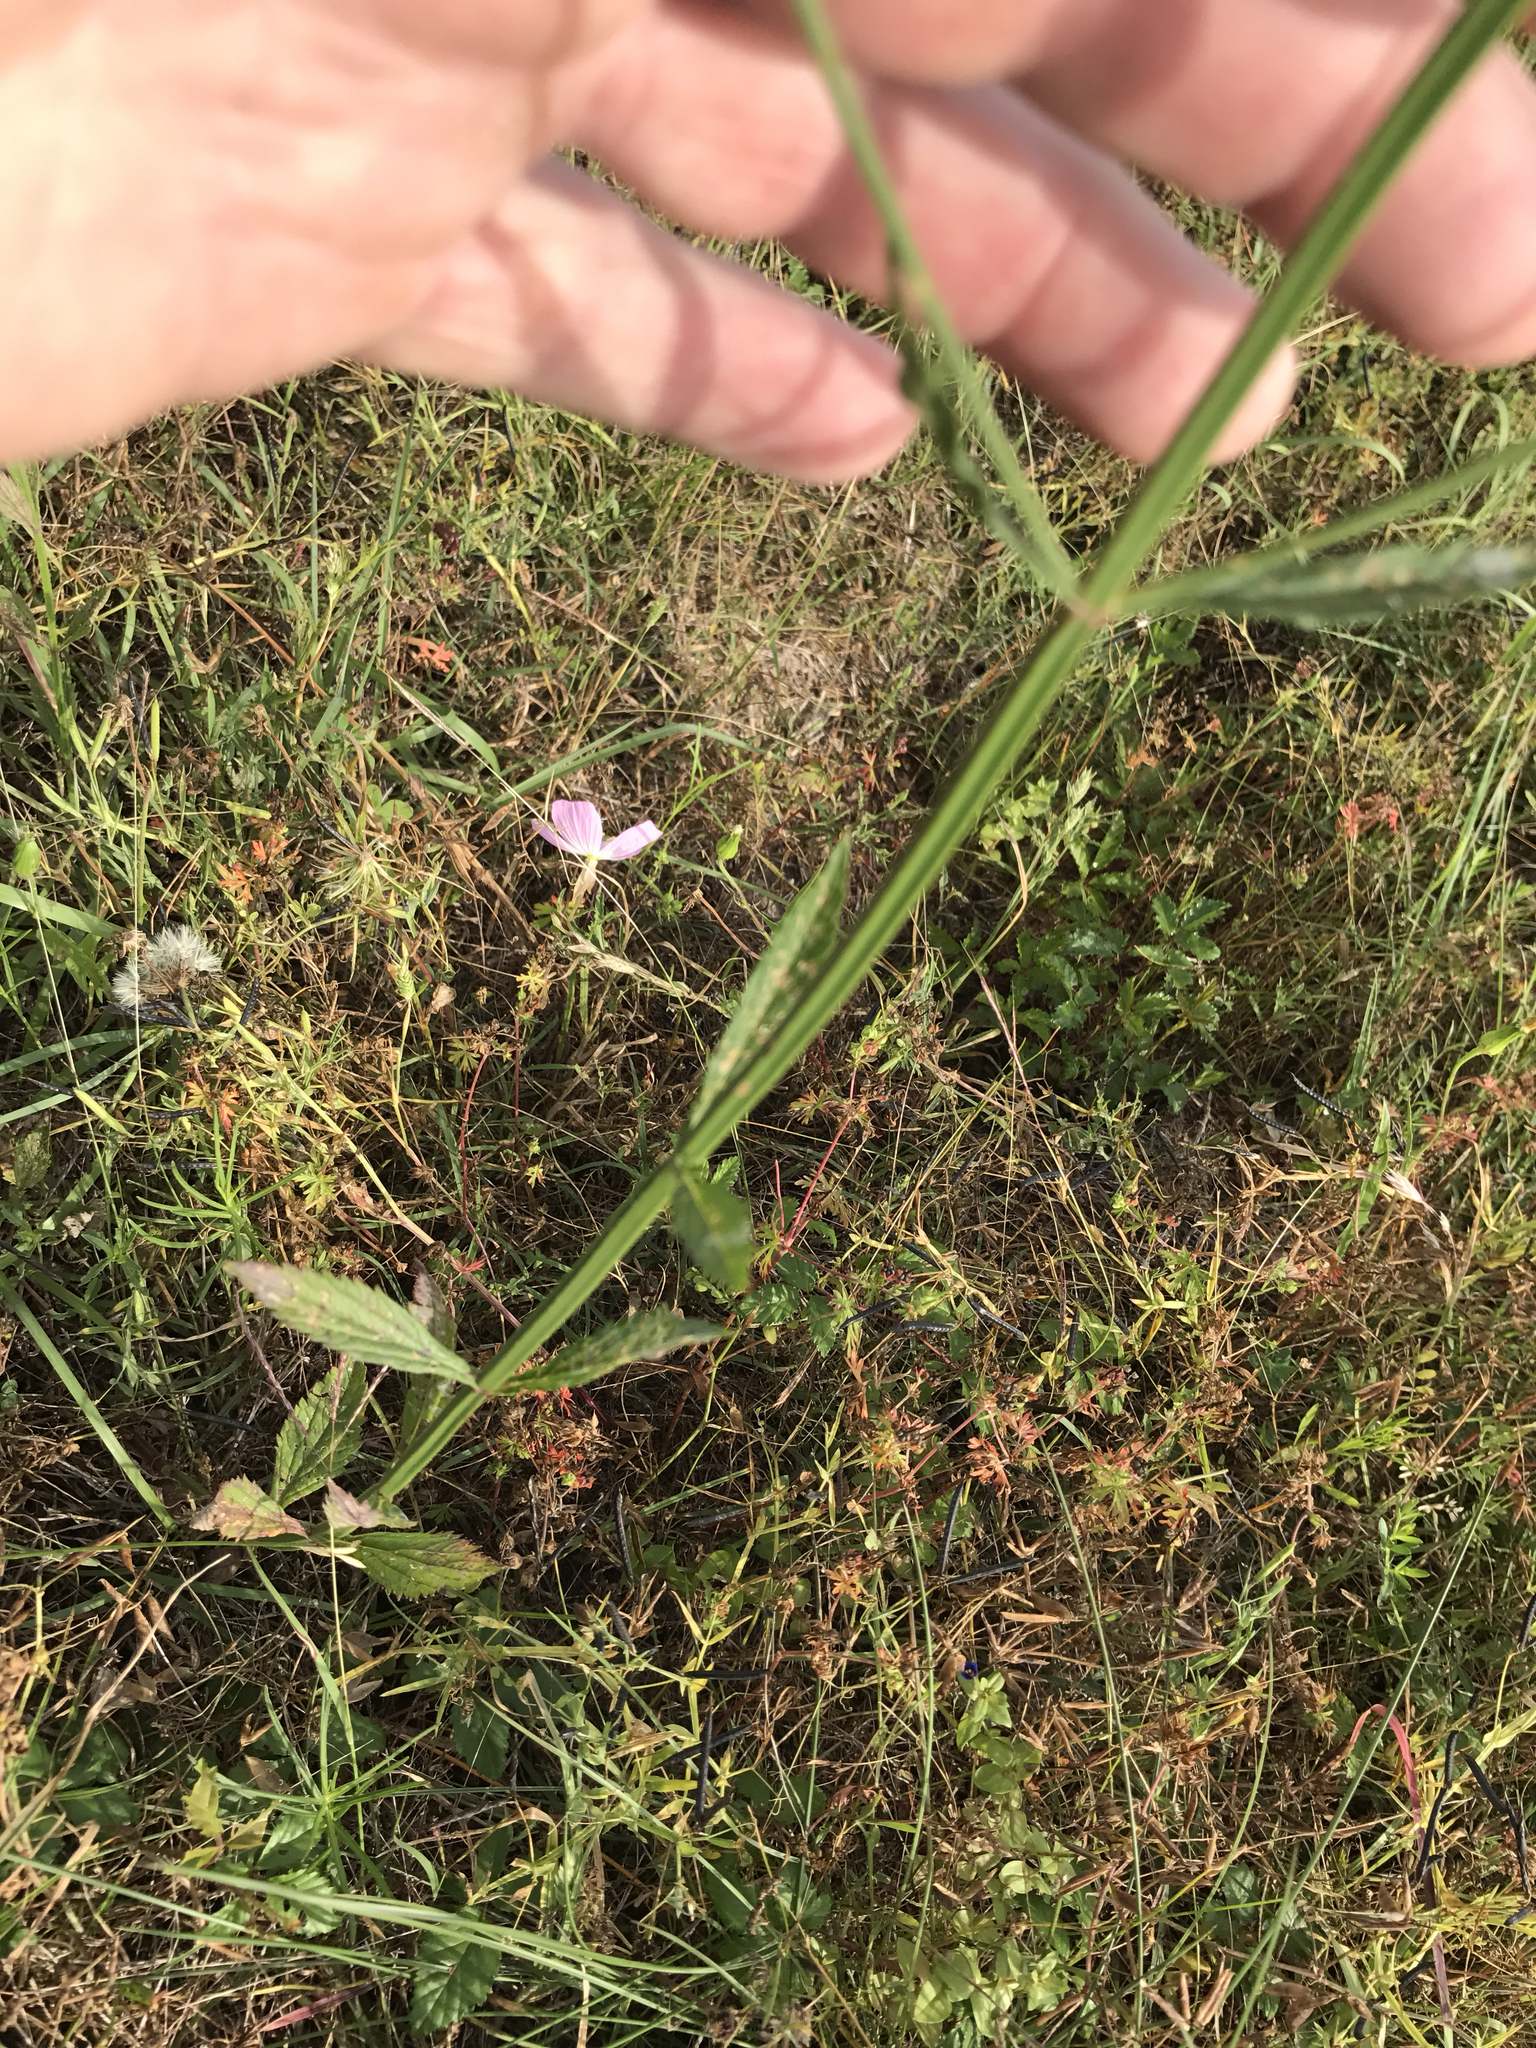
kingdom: Plantae
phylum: Tracheophyta
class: Magnoliopsida
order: Lamiales
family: Verbenaceae
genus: Verbena
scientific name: Verbena brasiliensis
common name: Brazilian vervain
